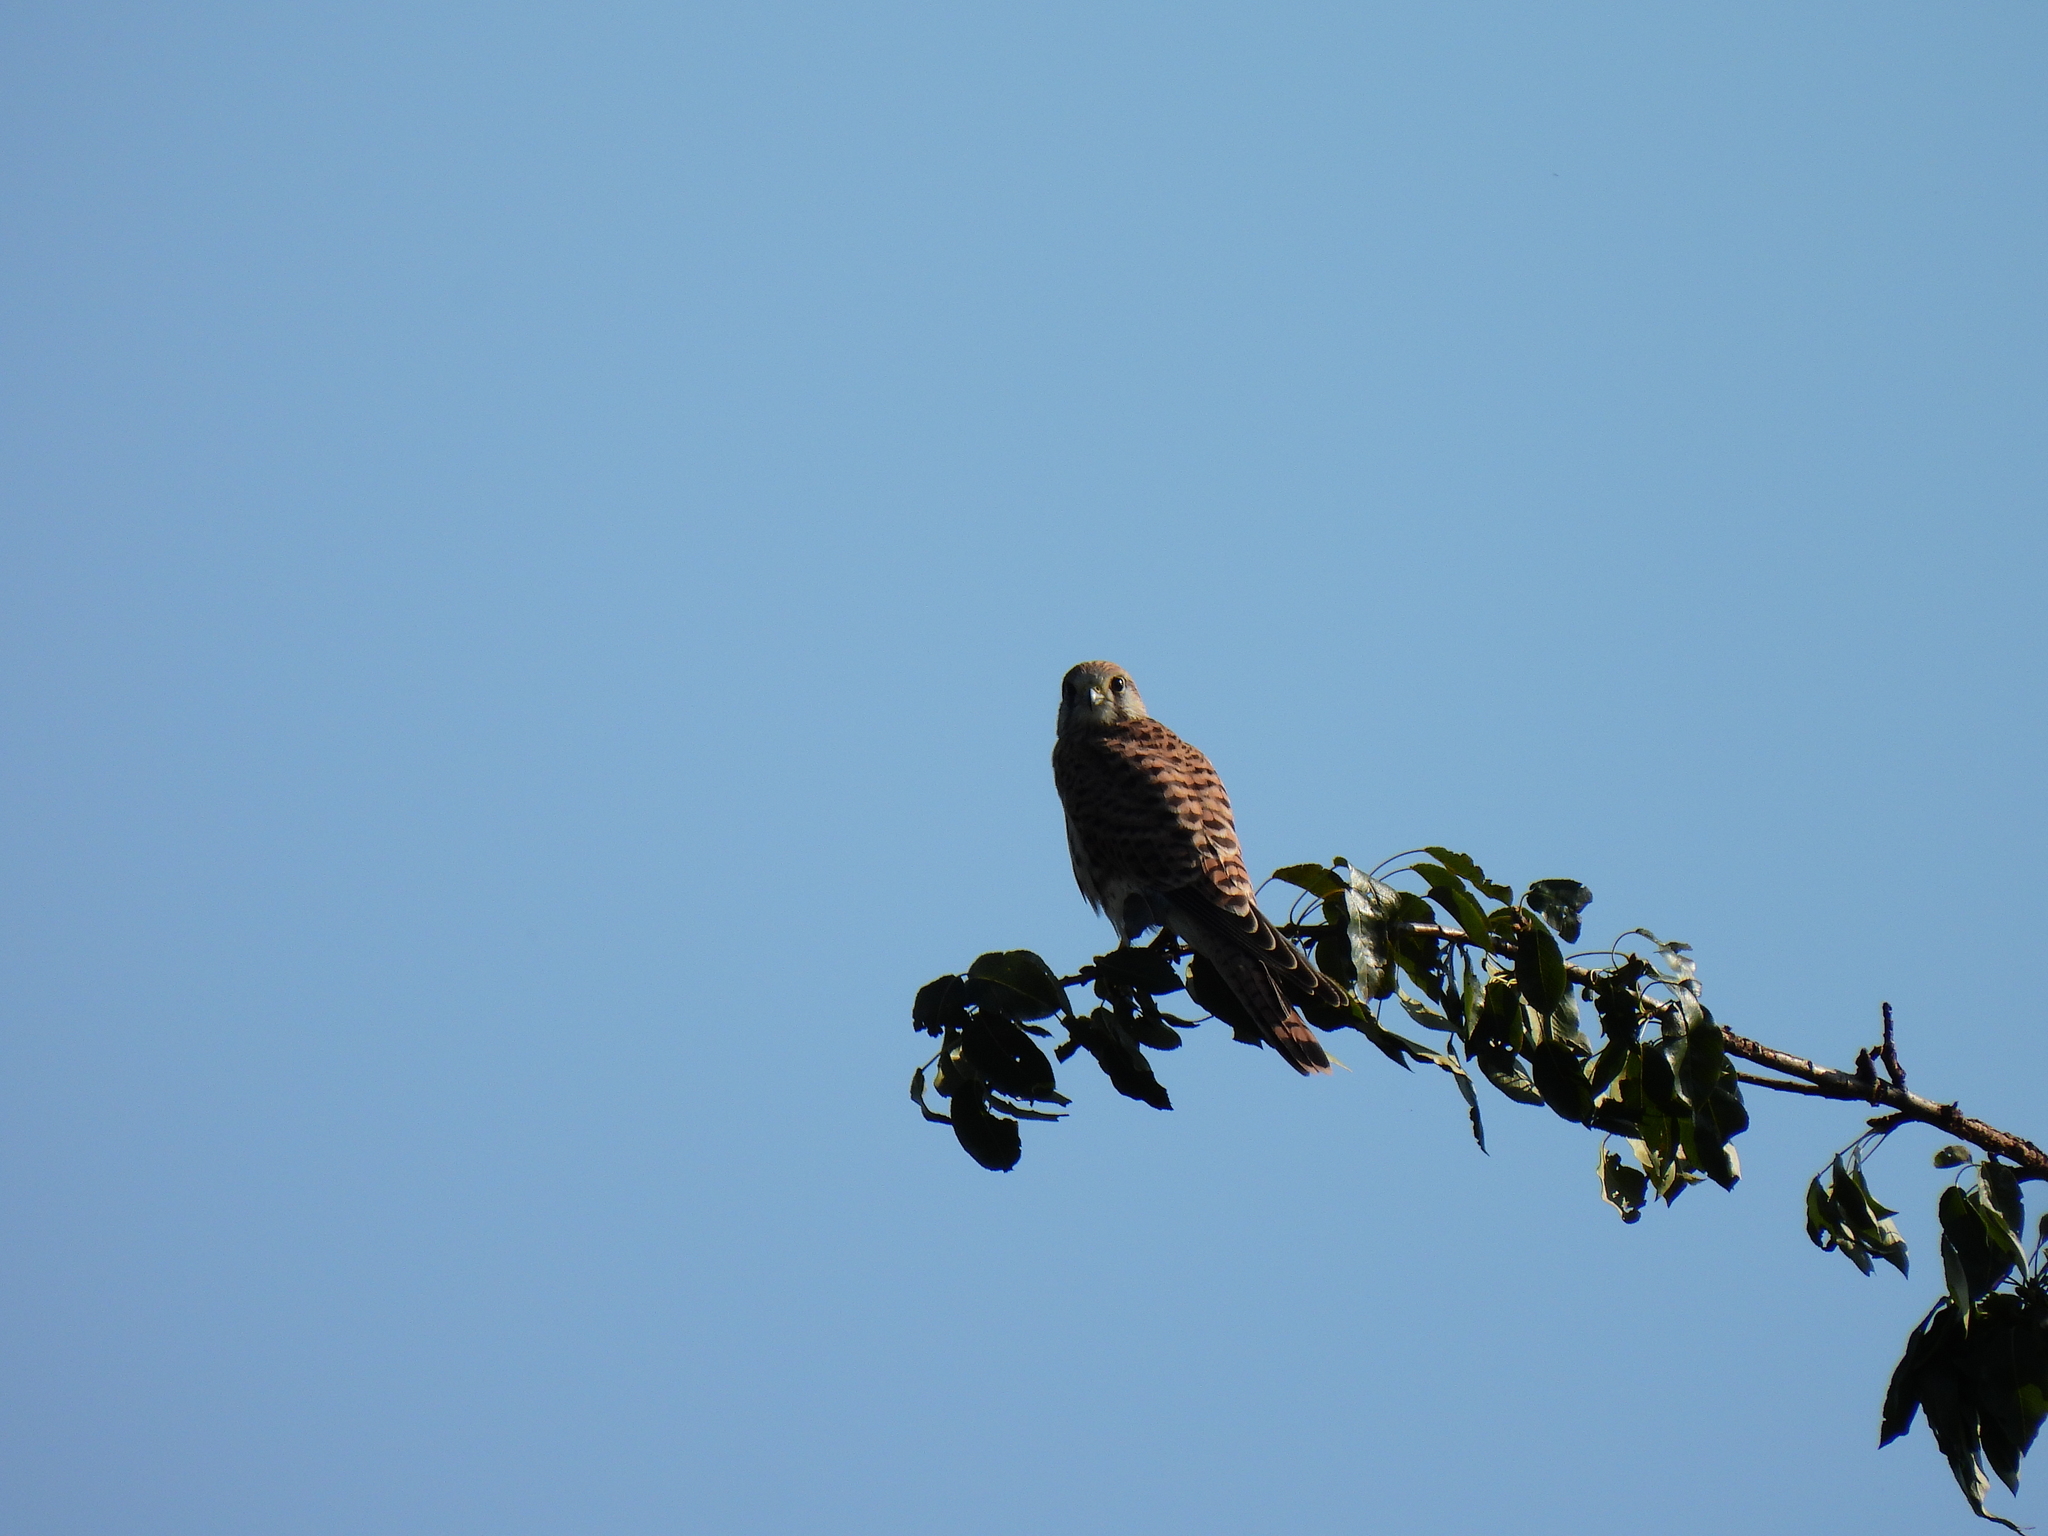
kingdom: Animalia
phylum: Chordata
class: Aves
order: Falconiformes
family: Falconidae
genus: Falco
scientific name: Falco tinnunculus
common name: Common kestrel
